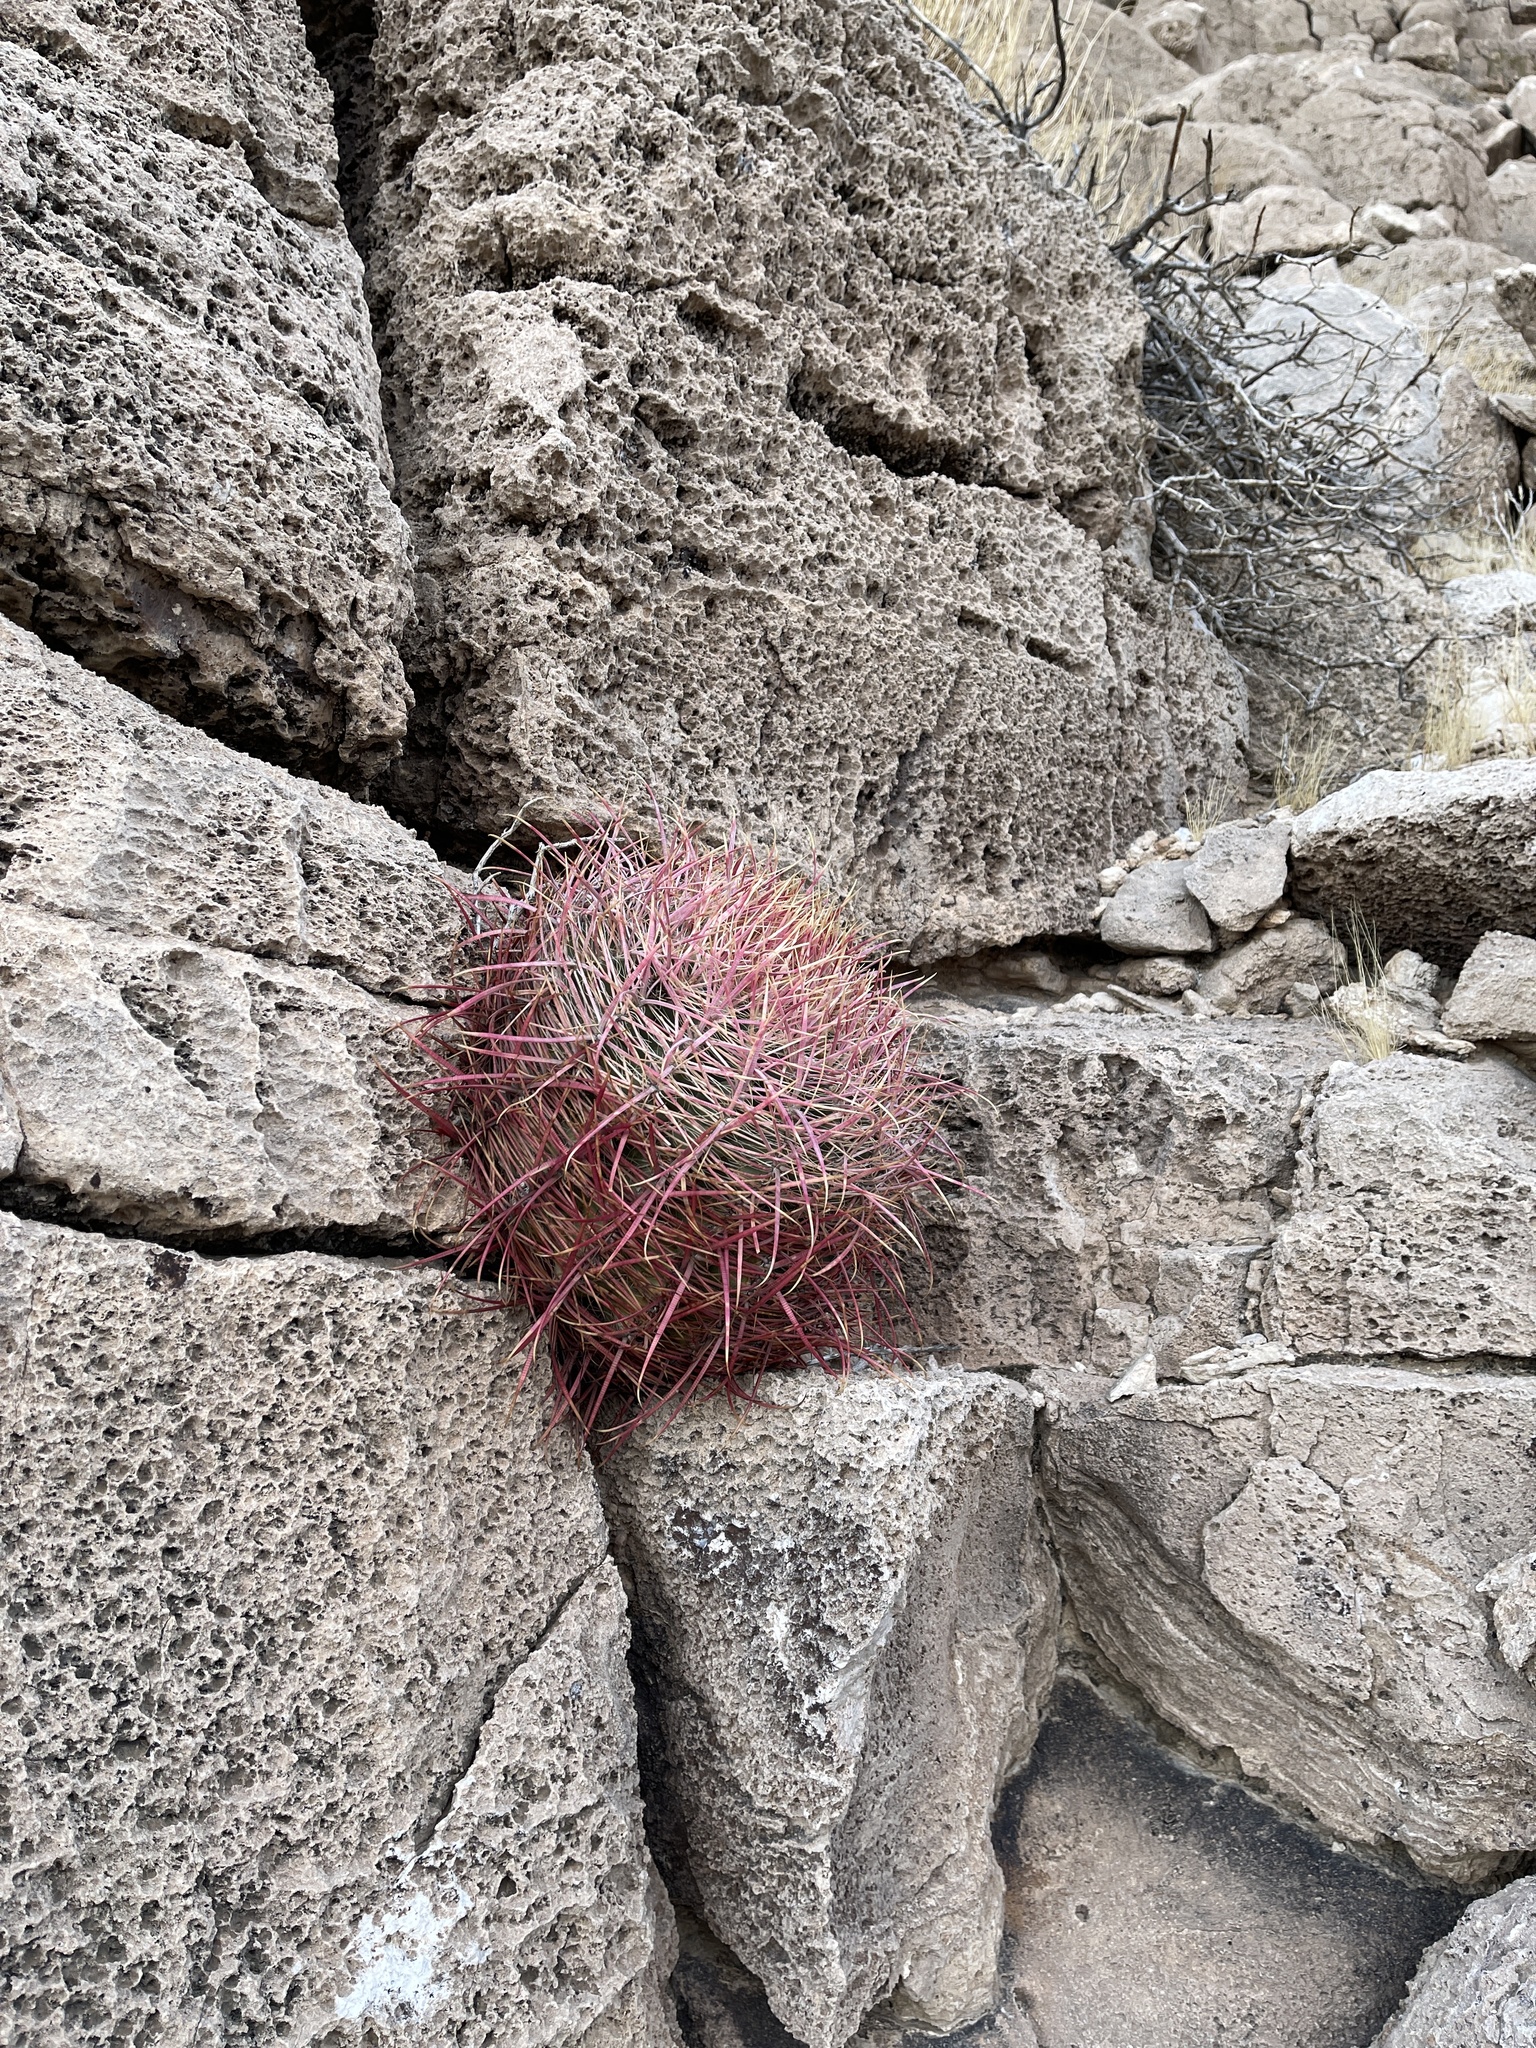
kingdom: Plantae
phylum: Tracheophyta
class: Magnoliopsida
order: Caryophyllales
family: Cactaceae
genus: Ferocactus
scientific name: Ferocactus cylindraceus
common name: California barrel cactus
